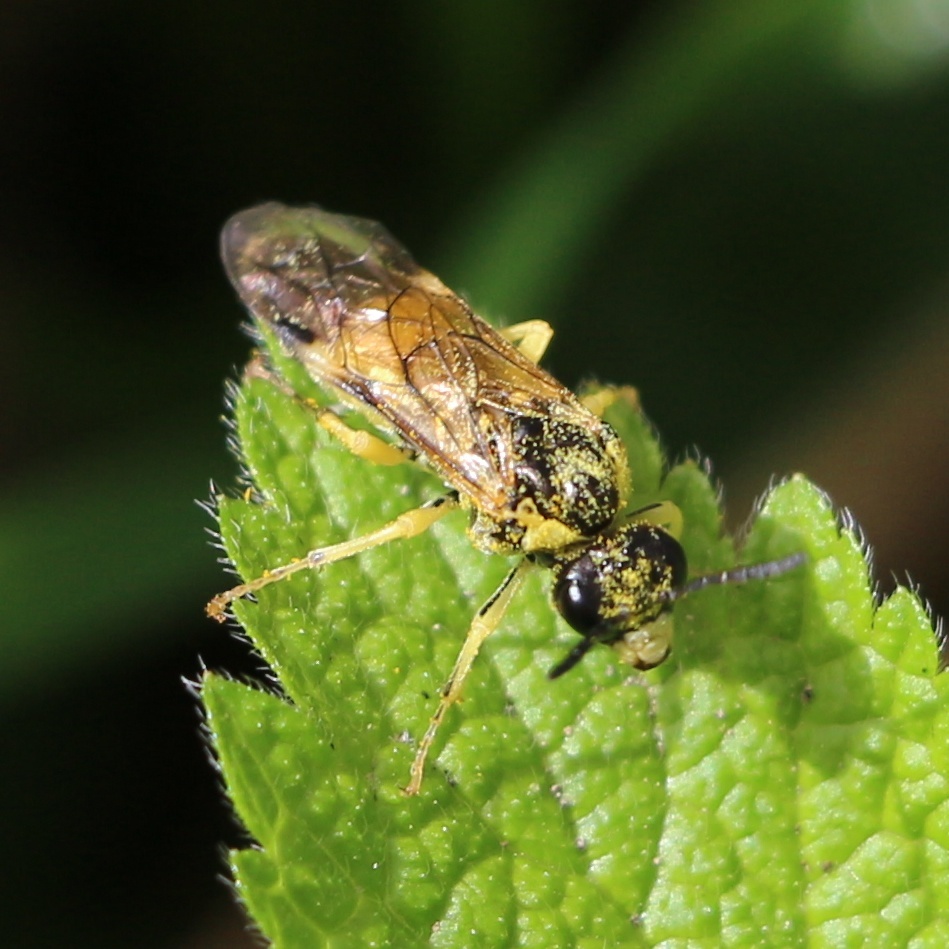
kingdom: Animalia
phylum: Arthropoda
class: Insecta
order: Hymenoptera
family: Tenthredinidae
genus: Tenthredo
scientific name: Tenthredo talyshensis
